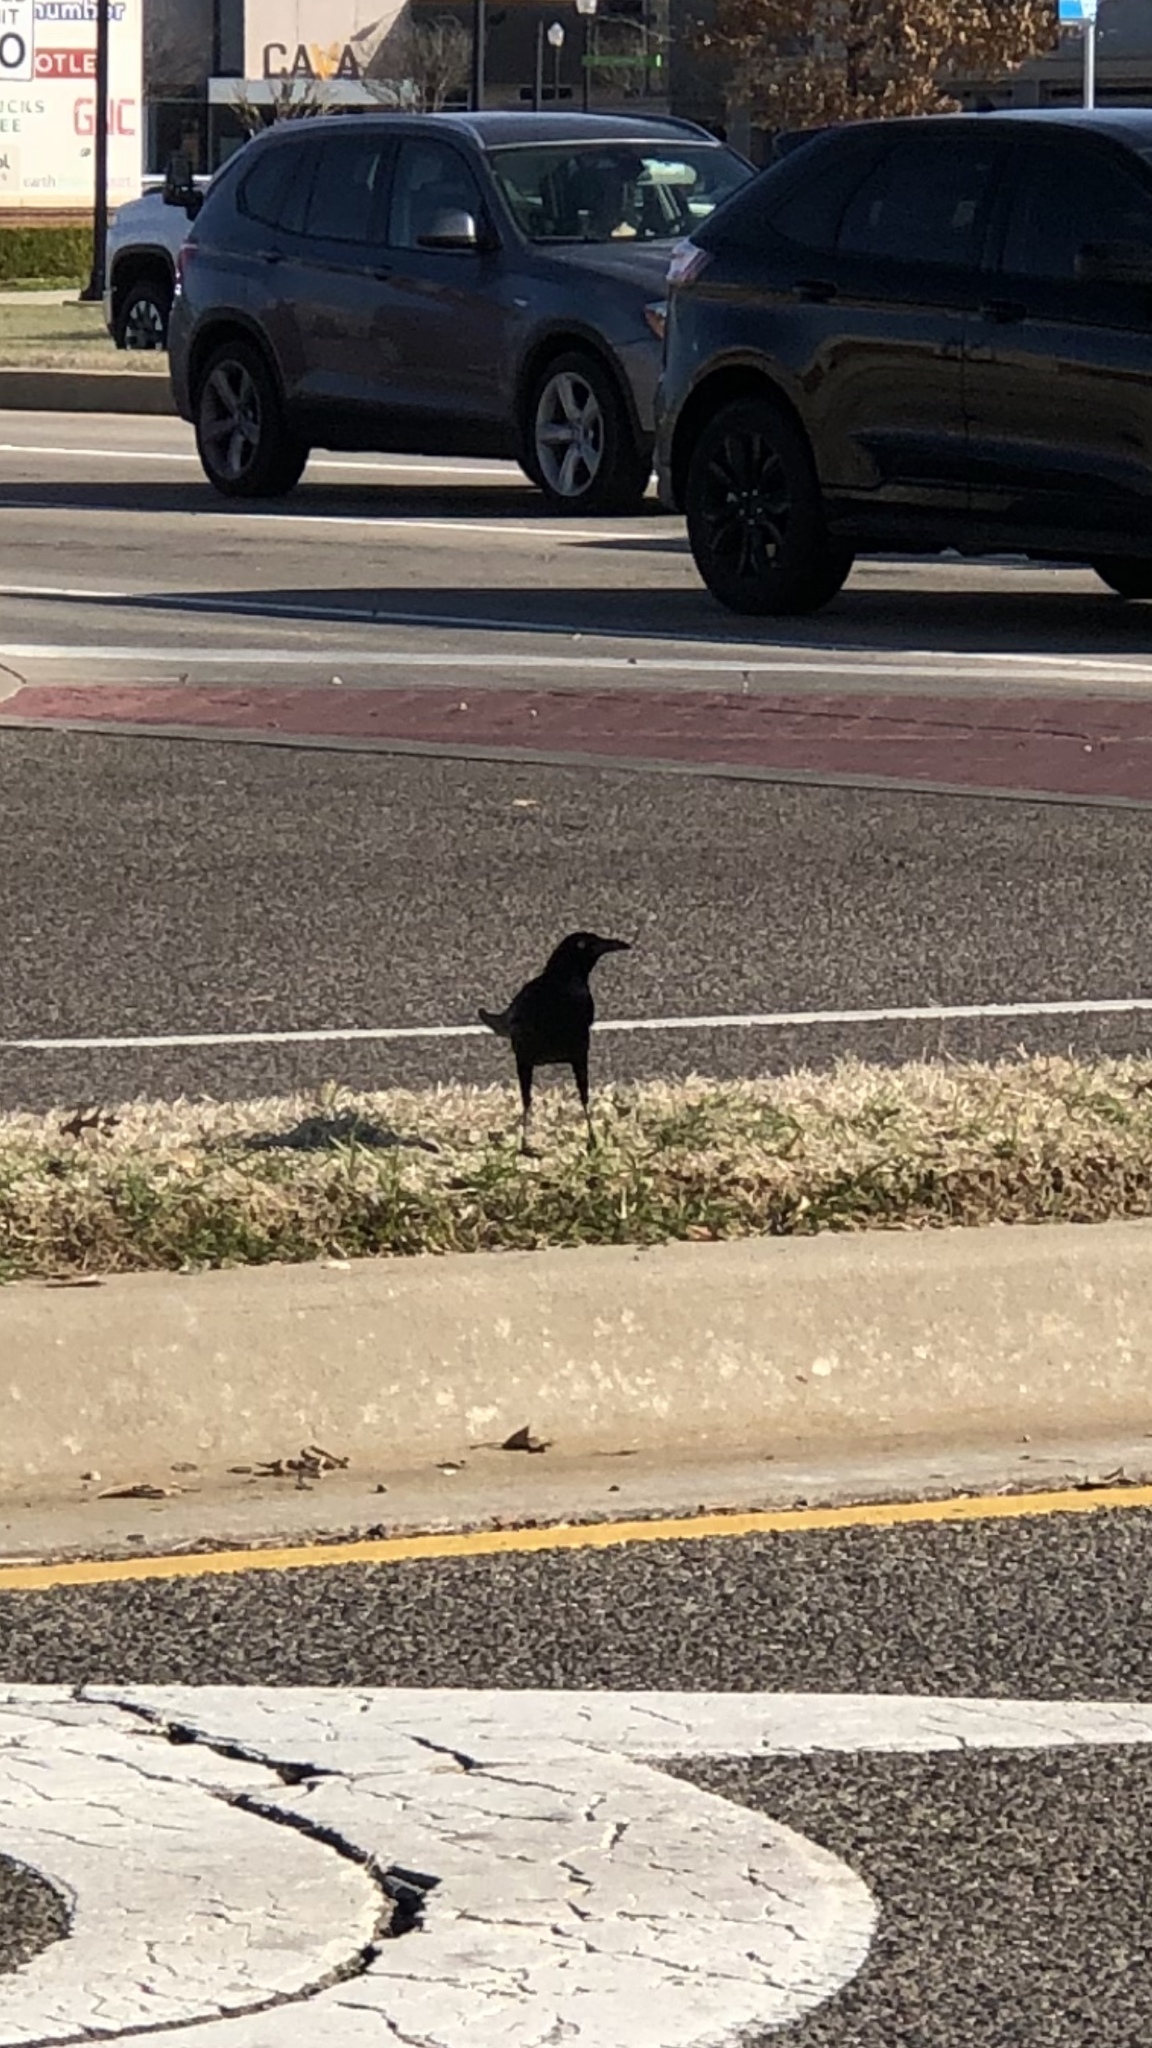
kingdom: Animalia
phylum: Chordata
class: Aves
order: Passeriformes
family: Icteridae
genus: Quiscalus
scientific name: Quiscalus mexicanus
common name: Great-tailed grackle
